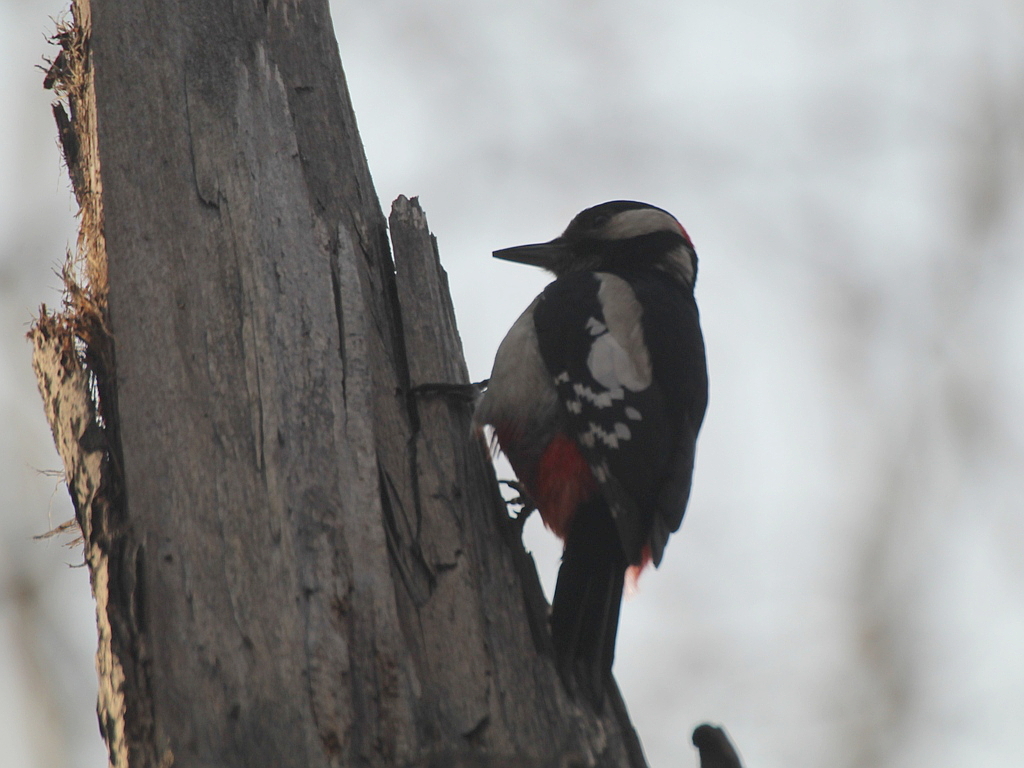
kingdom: Animalia
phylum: Chordata
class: Aves
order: Piciformes
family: Picidae
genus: Dendrocopos
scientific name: Dendrocopos major
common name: Great spotted woodpecker
